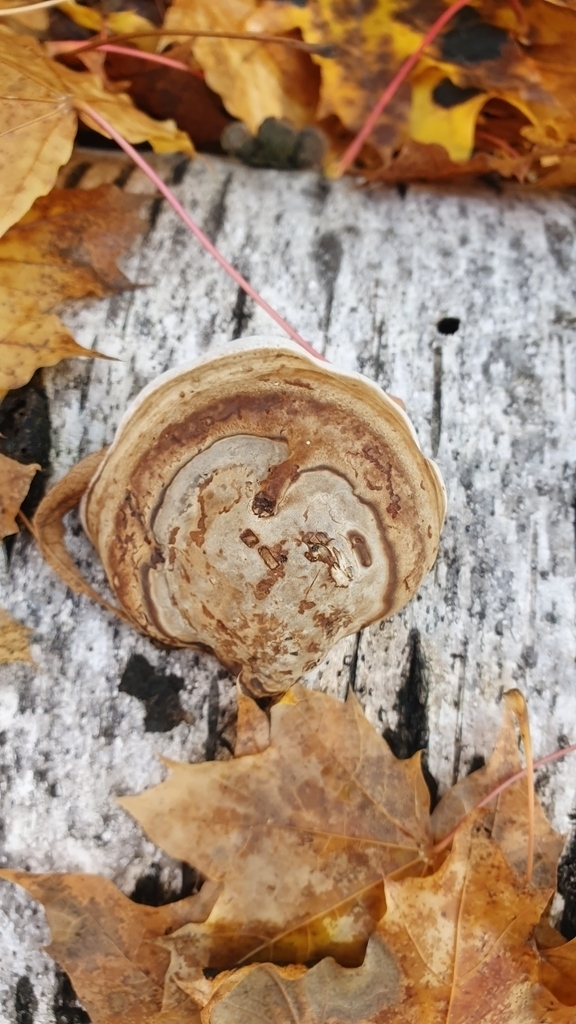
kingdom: Fungi
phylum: Basidiomycota
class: Agaricomycetes
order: Polyporales
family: Polyporaceae
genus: Fomes
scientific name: Fomes fomentarius
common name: Hoof fungus
